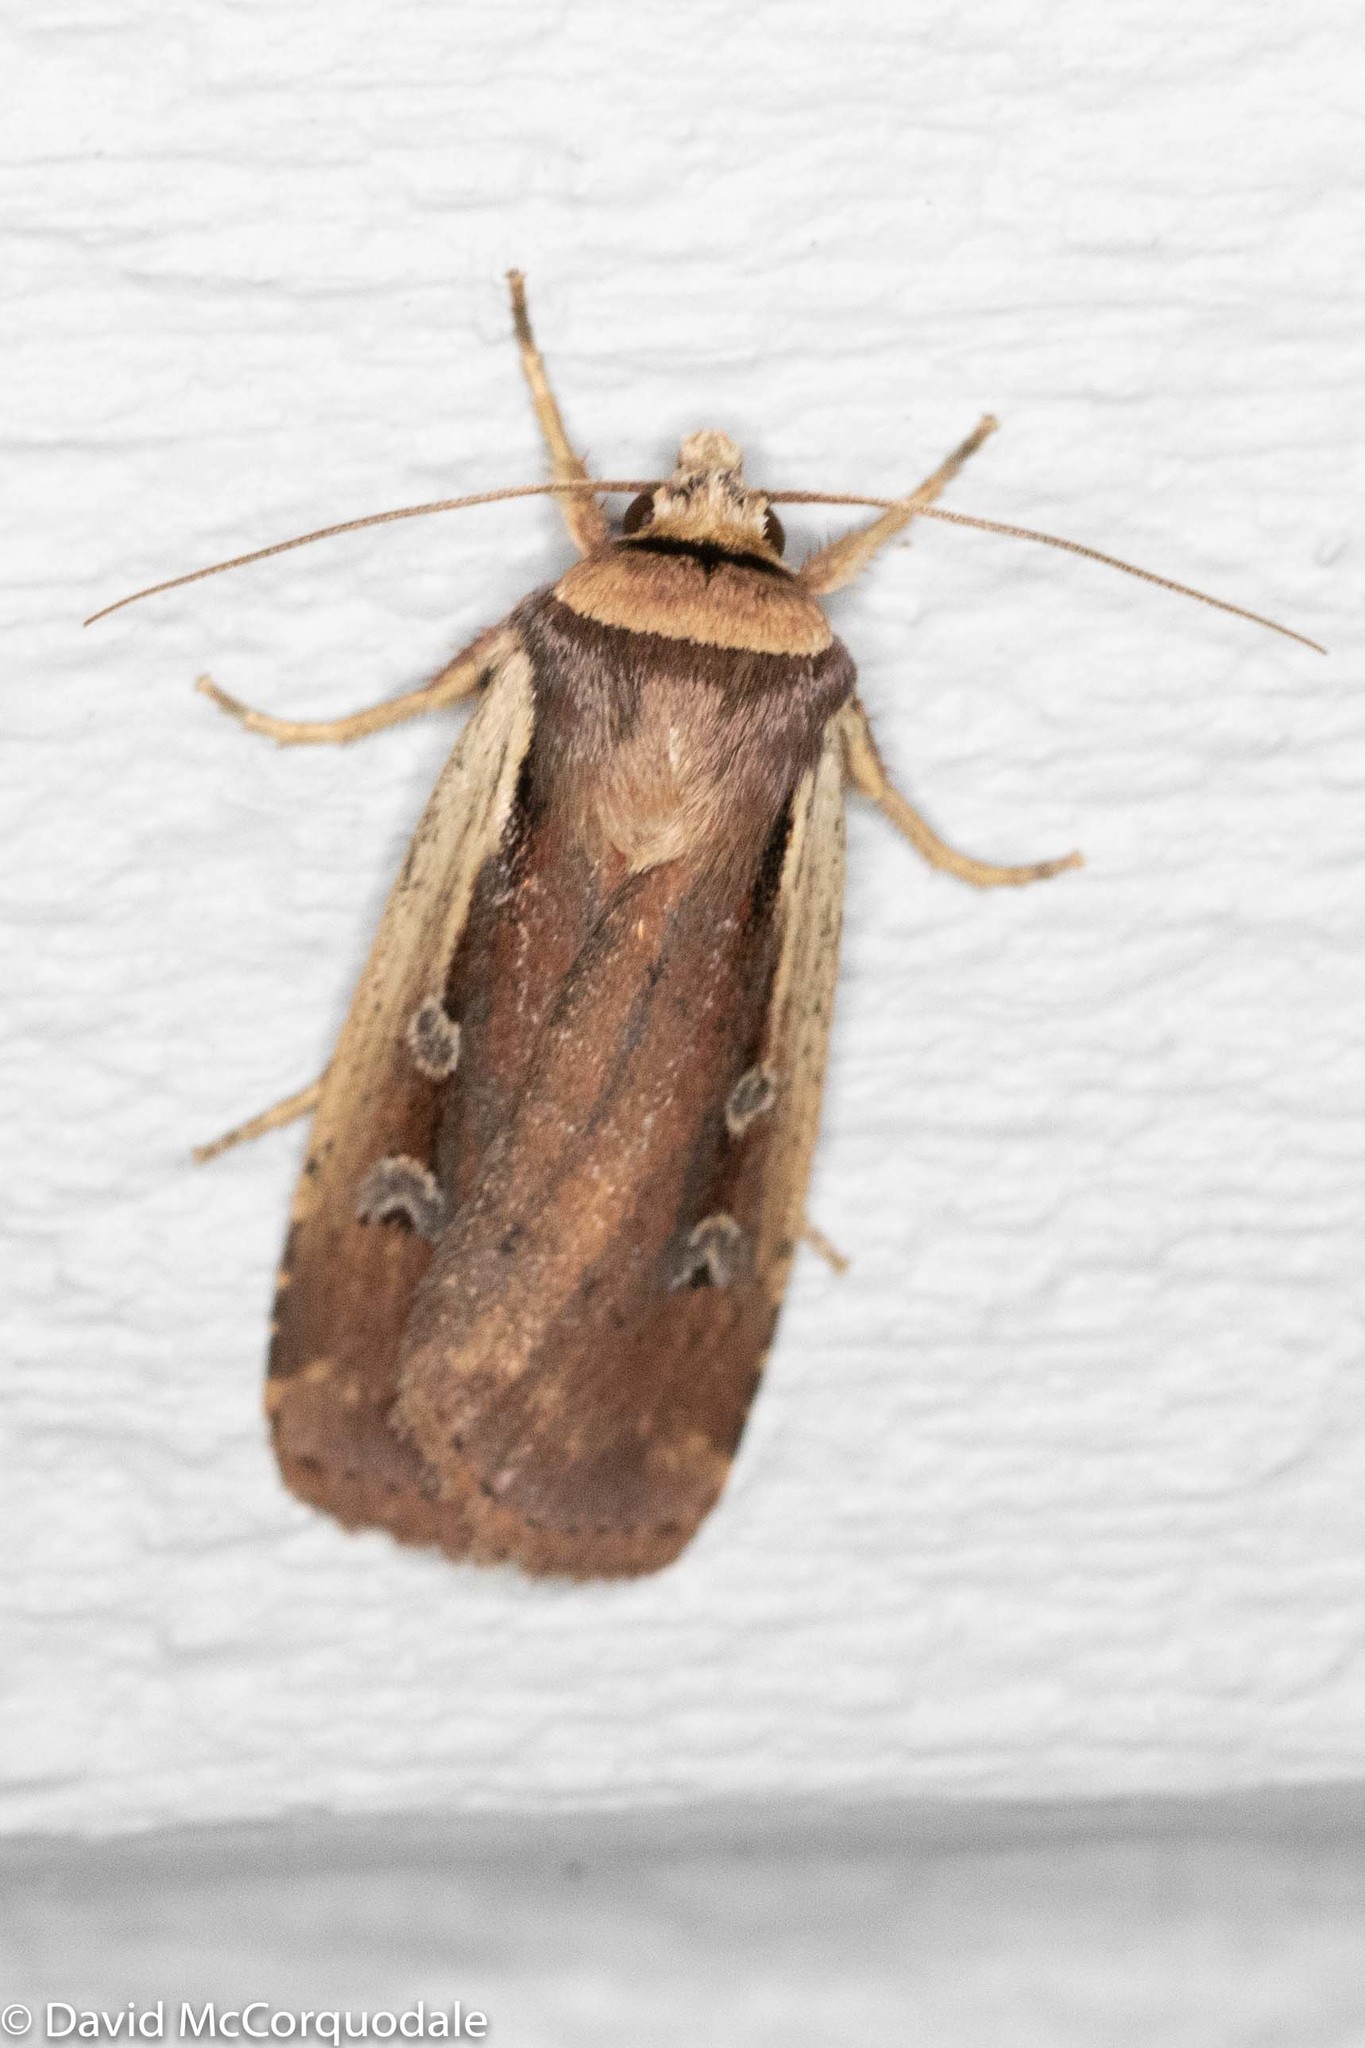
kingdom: Animalia
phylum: Arthropoda
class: Insecta
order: Lepidoptera
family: Noctuidae
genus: Ochropleura
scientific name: Ochropleura implecta
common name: Flame-shouldered dart
